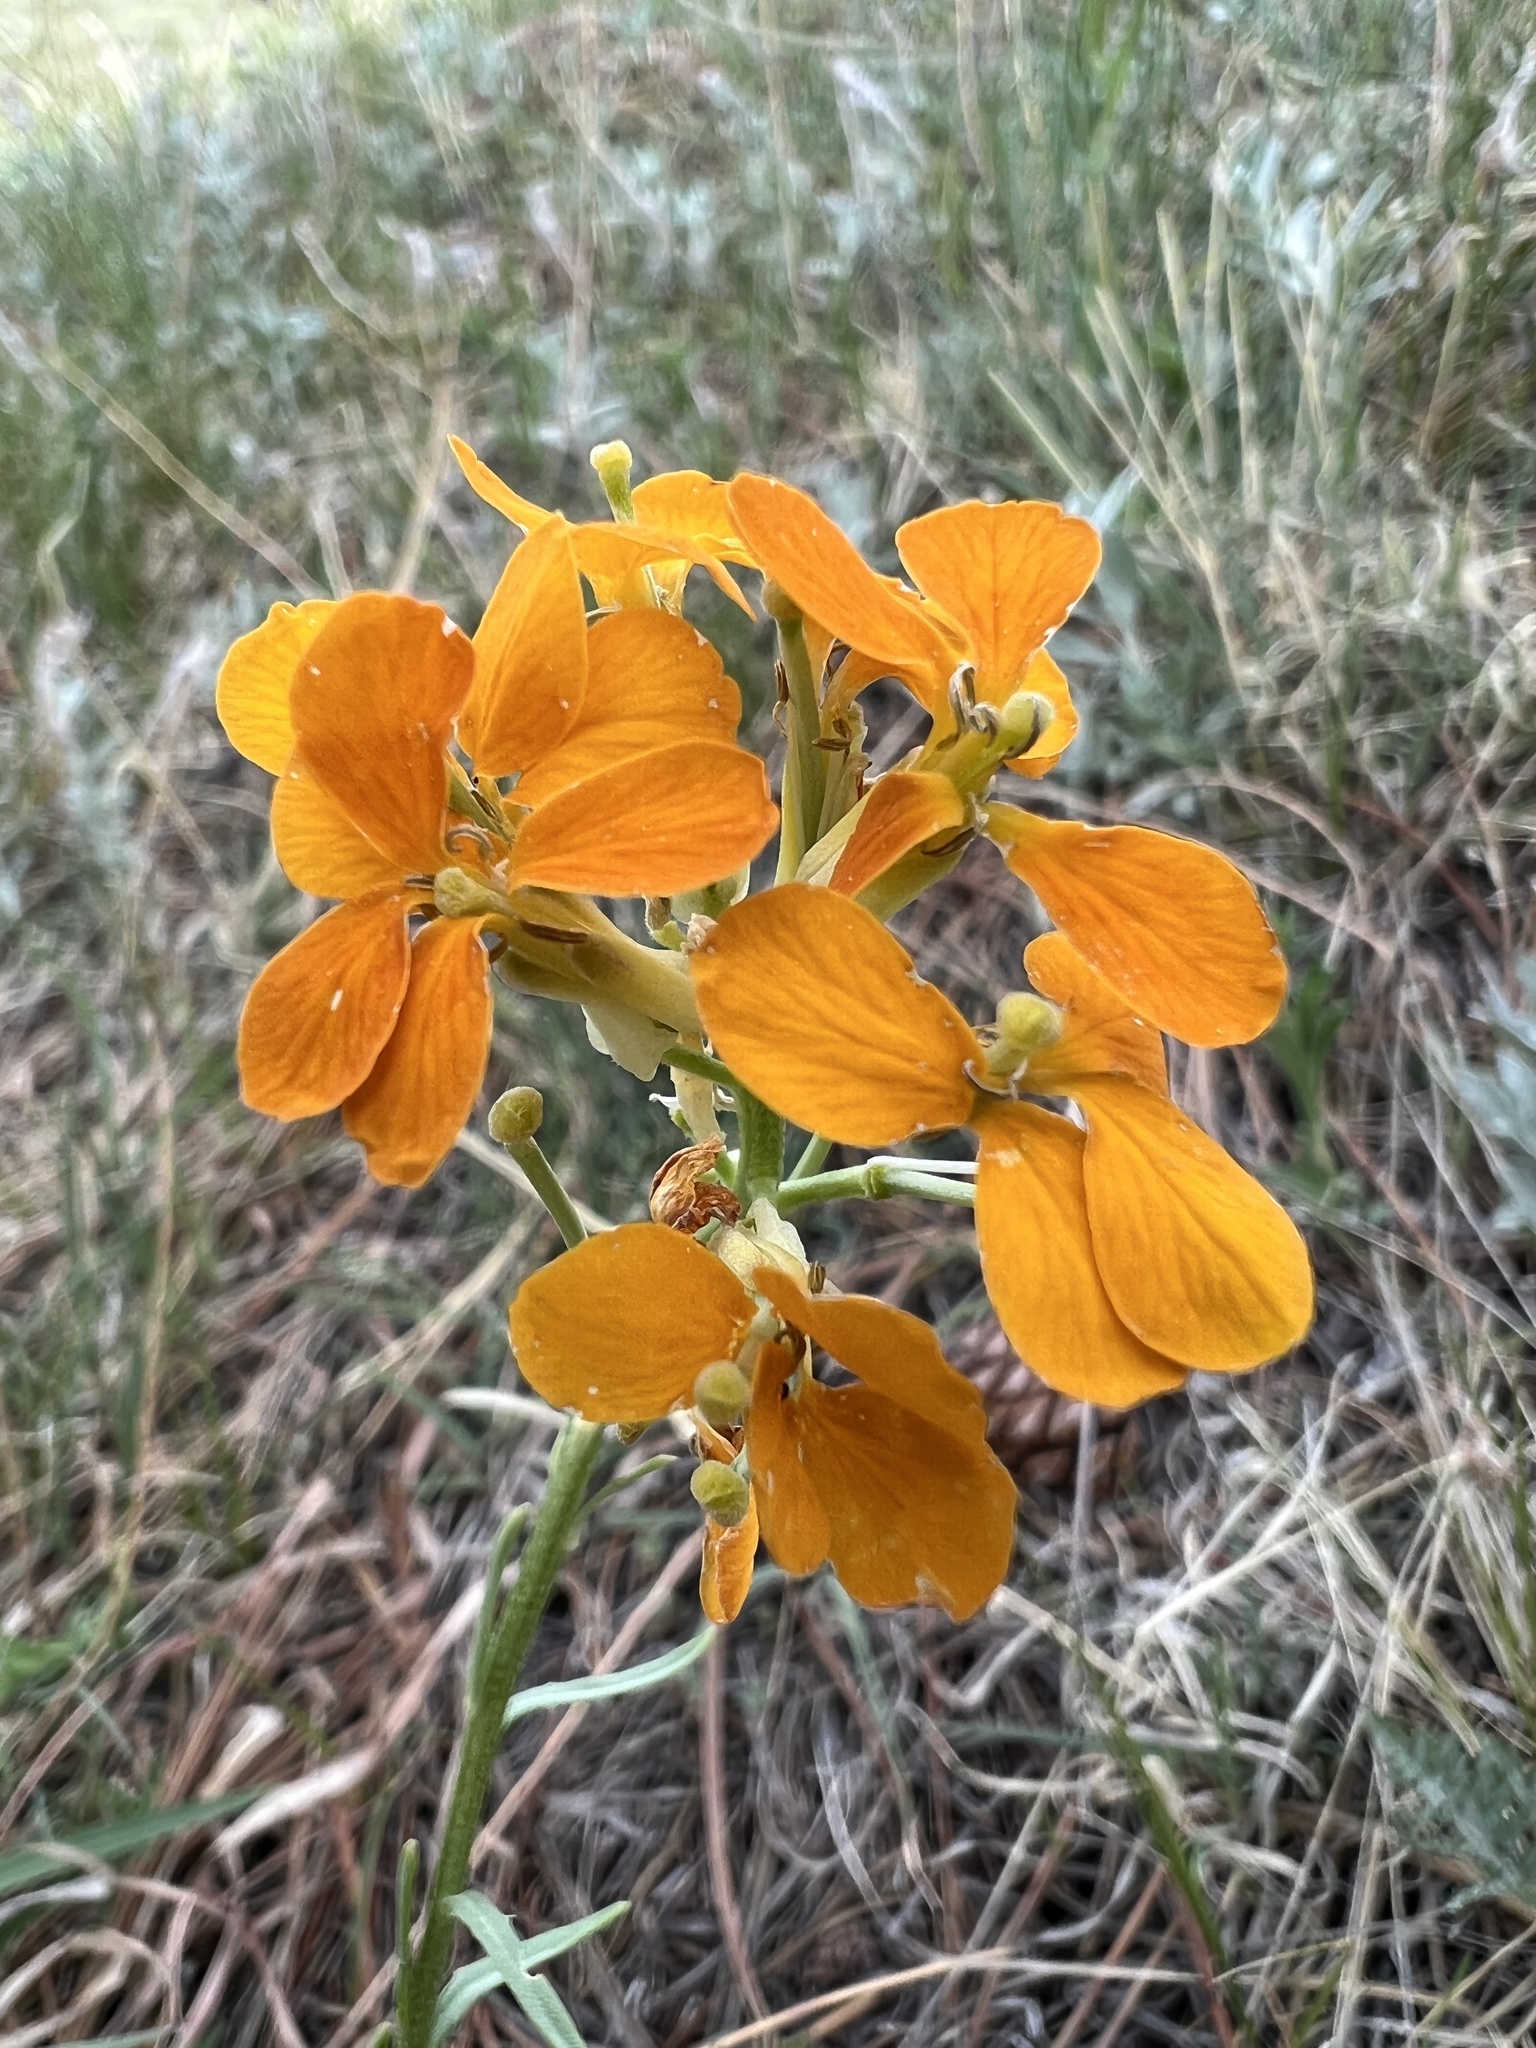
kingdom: Plantae
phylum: Tracheophyta
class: Magnoliopsida
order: Brassicales
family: Brassicaceae
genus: Erysimum
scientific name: Erysimum capitatum
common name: Western wallflower
